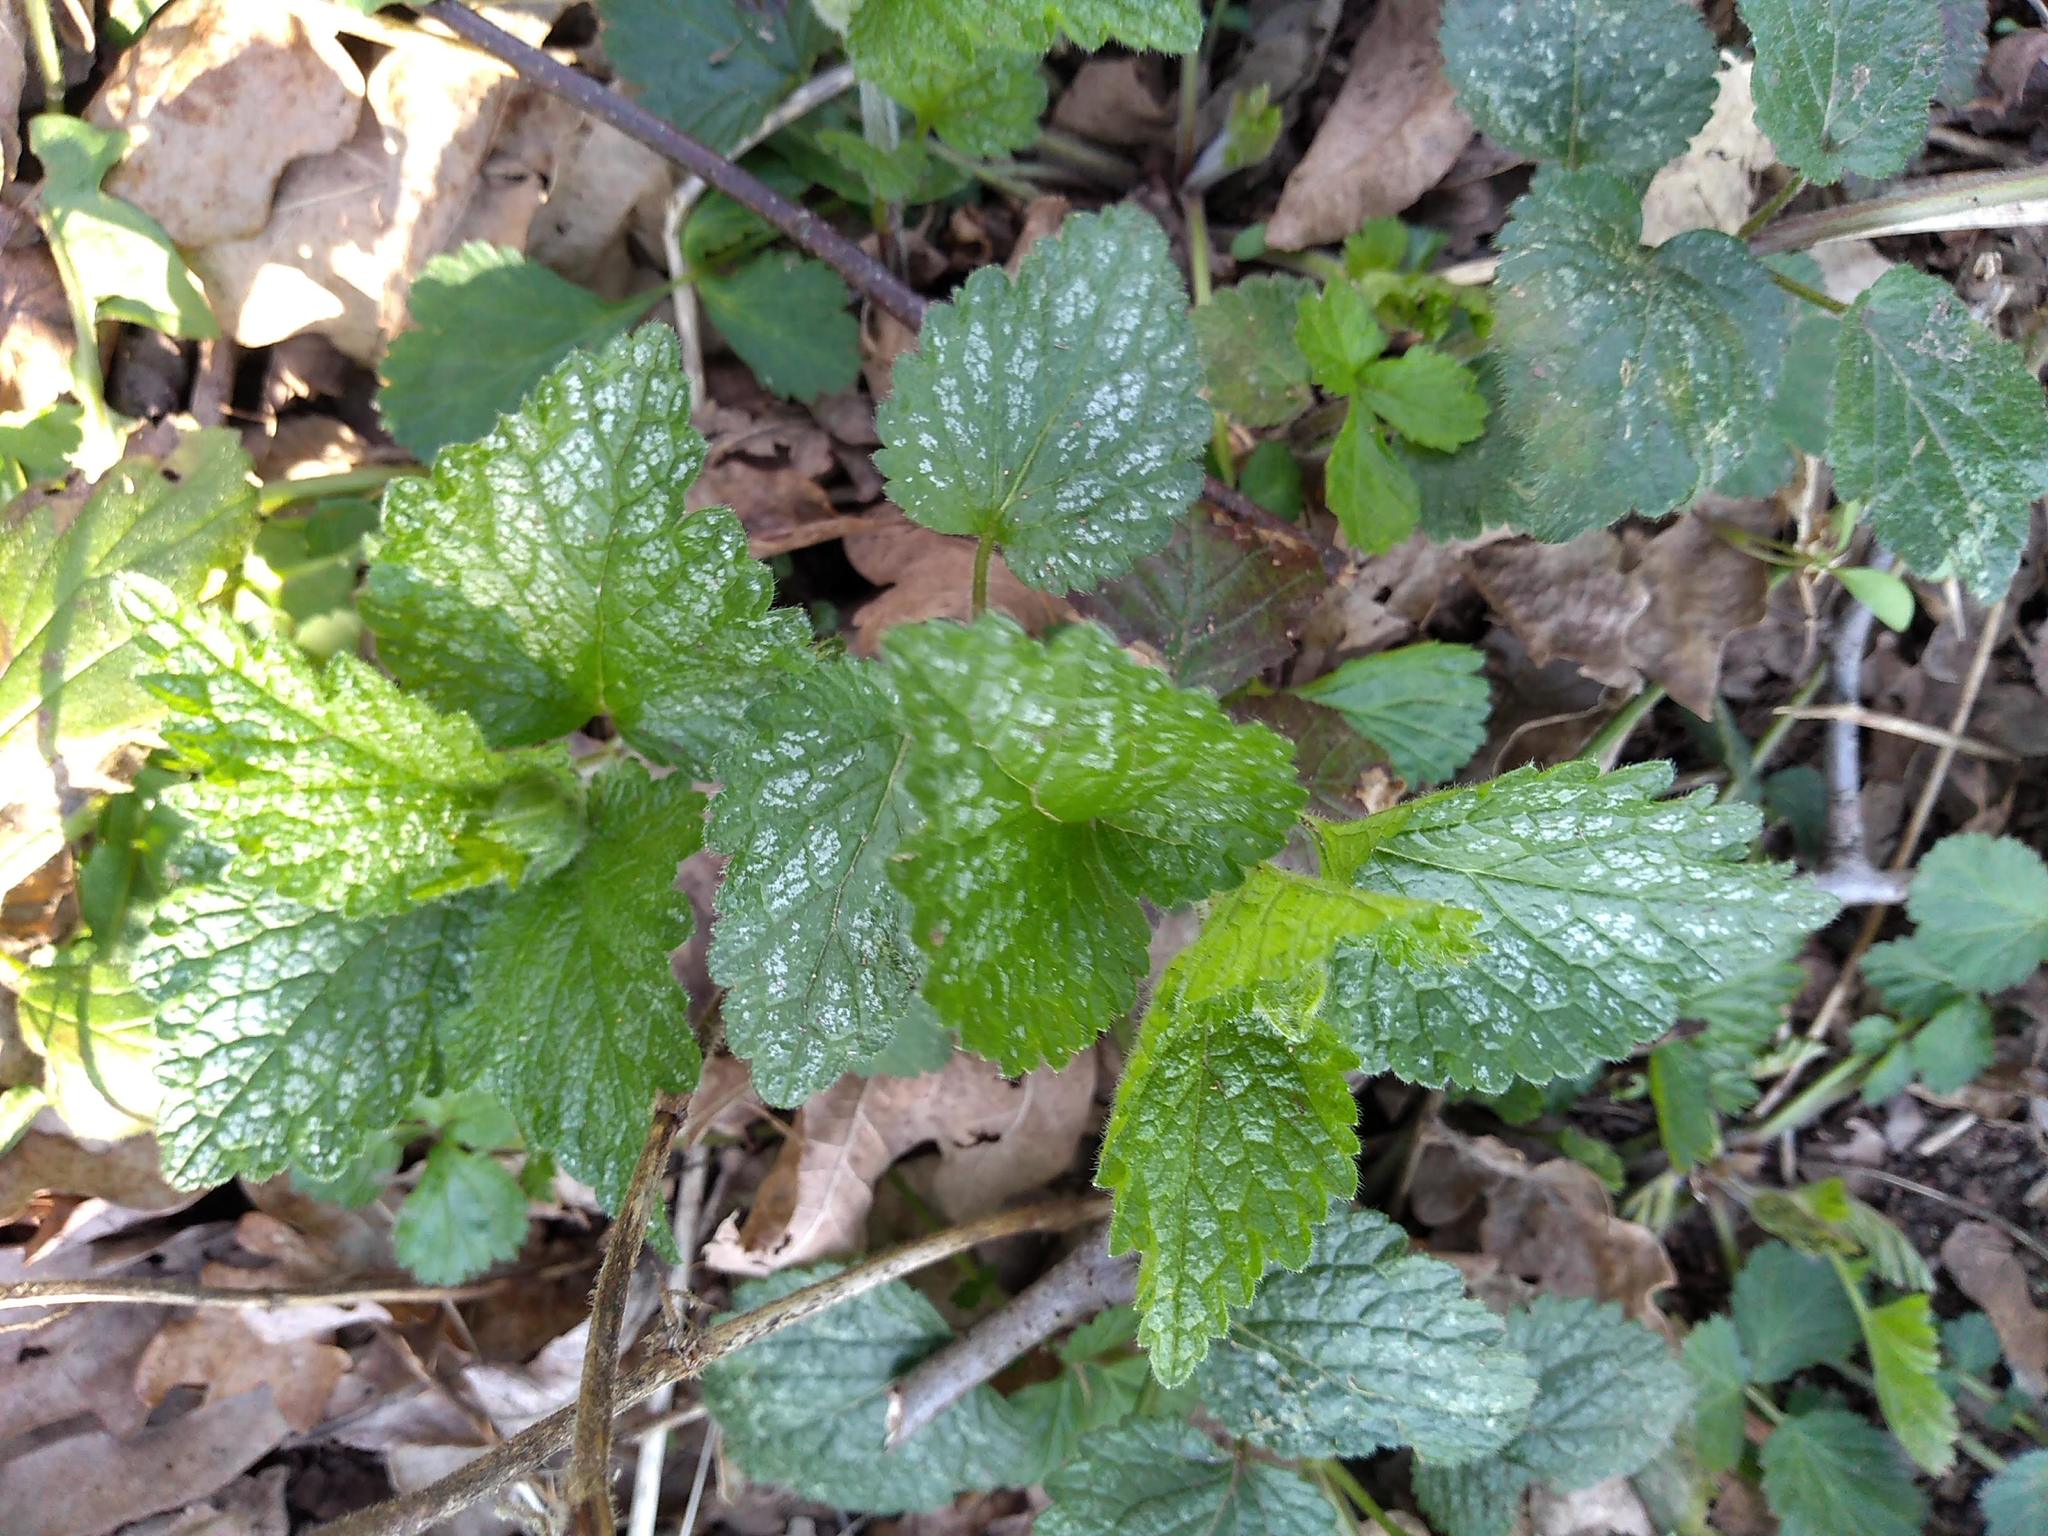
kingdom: Plantae
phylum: Tracheophyta
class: Magnoliopsida
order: Lamiales
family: Lamiaceae
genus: Lamium
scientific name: Lamium galeobdolon
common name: Yellow archangel
